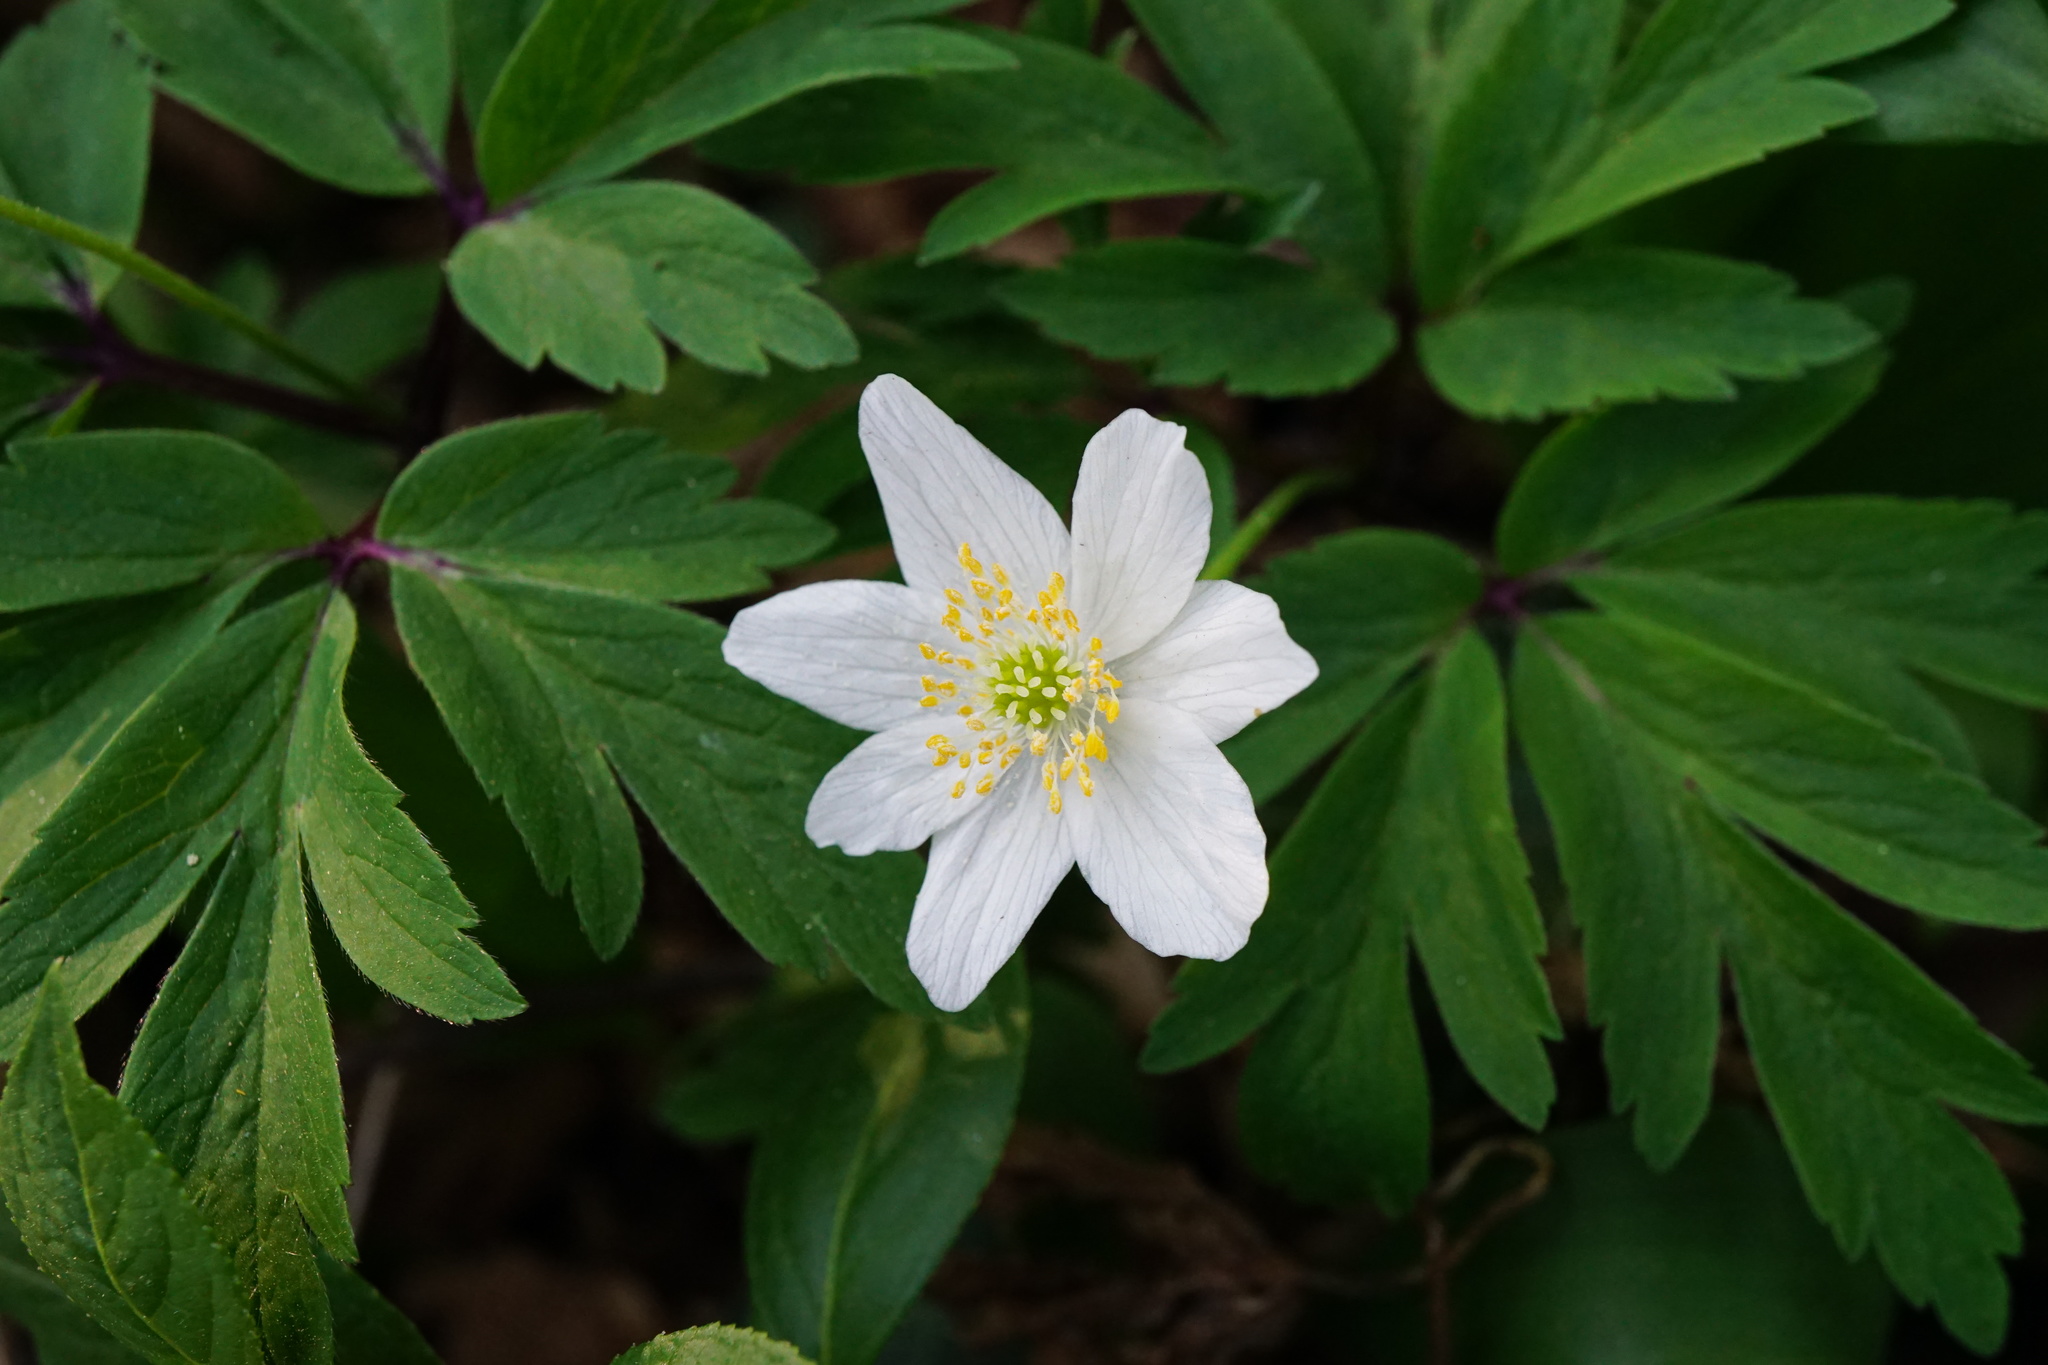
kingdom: Plantae
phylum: Tracheophyta
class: Magnoliopsida
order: Ranunculales
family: Ranunculaceae
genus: Anemone
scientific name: Anemone nemorosa
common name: Wood anemone
